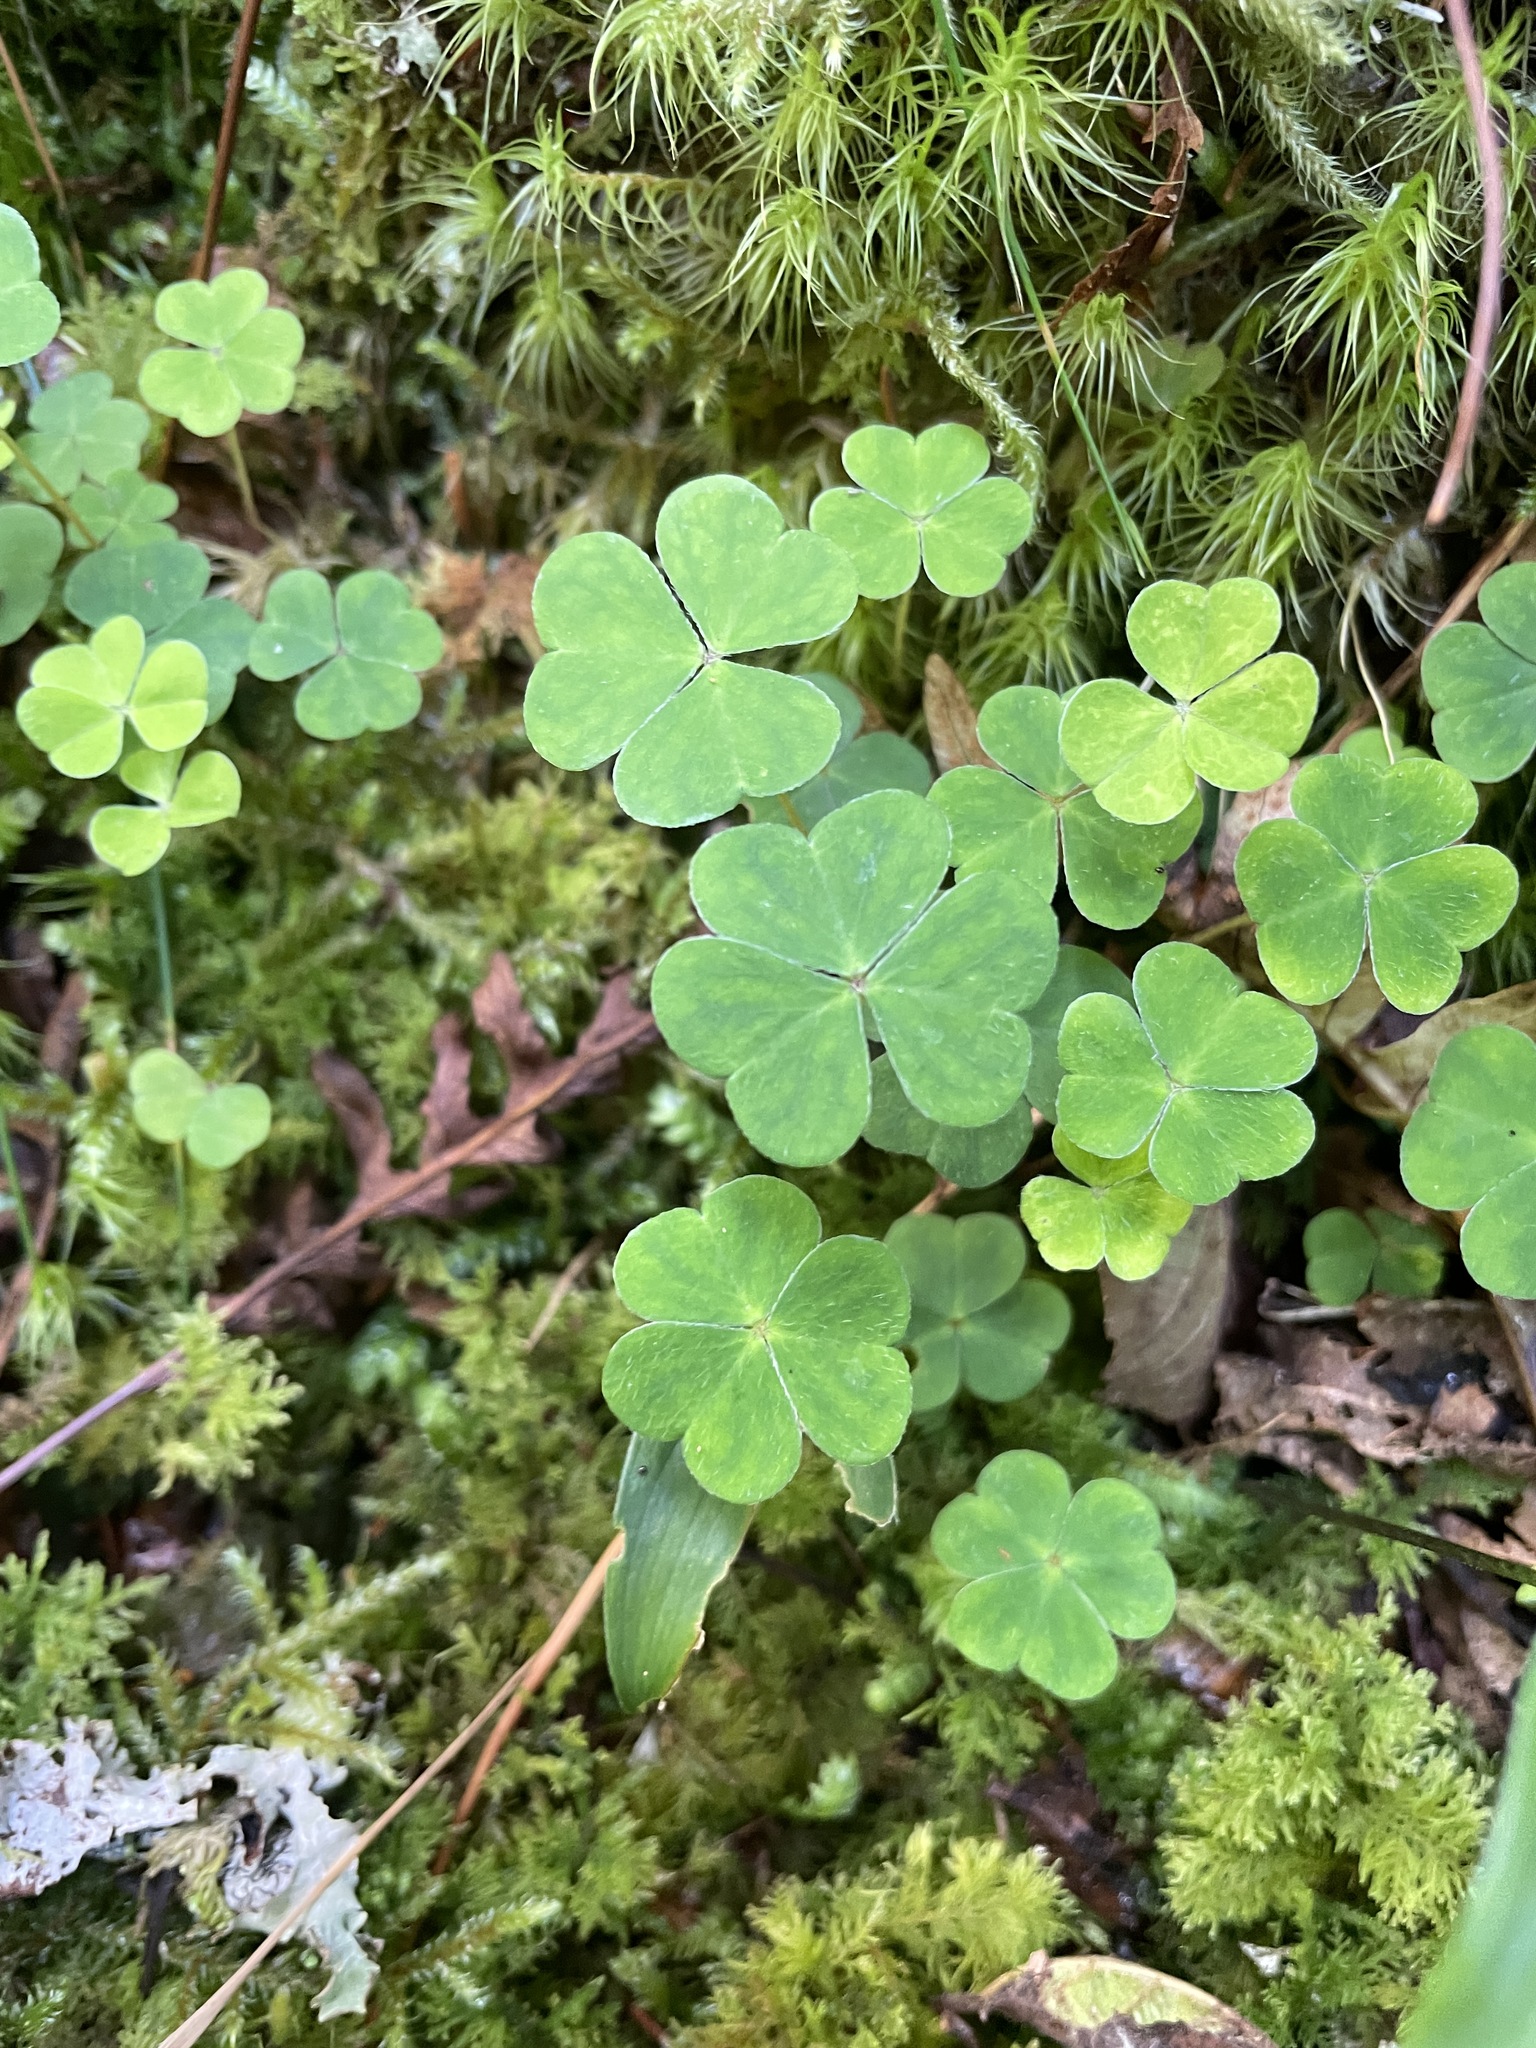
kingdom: Plantae
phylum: Tracheophyta
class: Magnoliopsida
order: Oxalidales
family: Oxalidaceae
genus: Oxalis
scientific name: Oxalis acetosella
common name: Wood-sorrel
